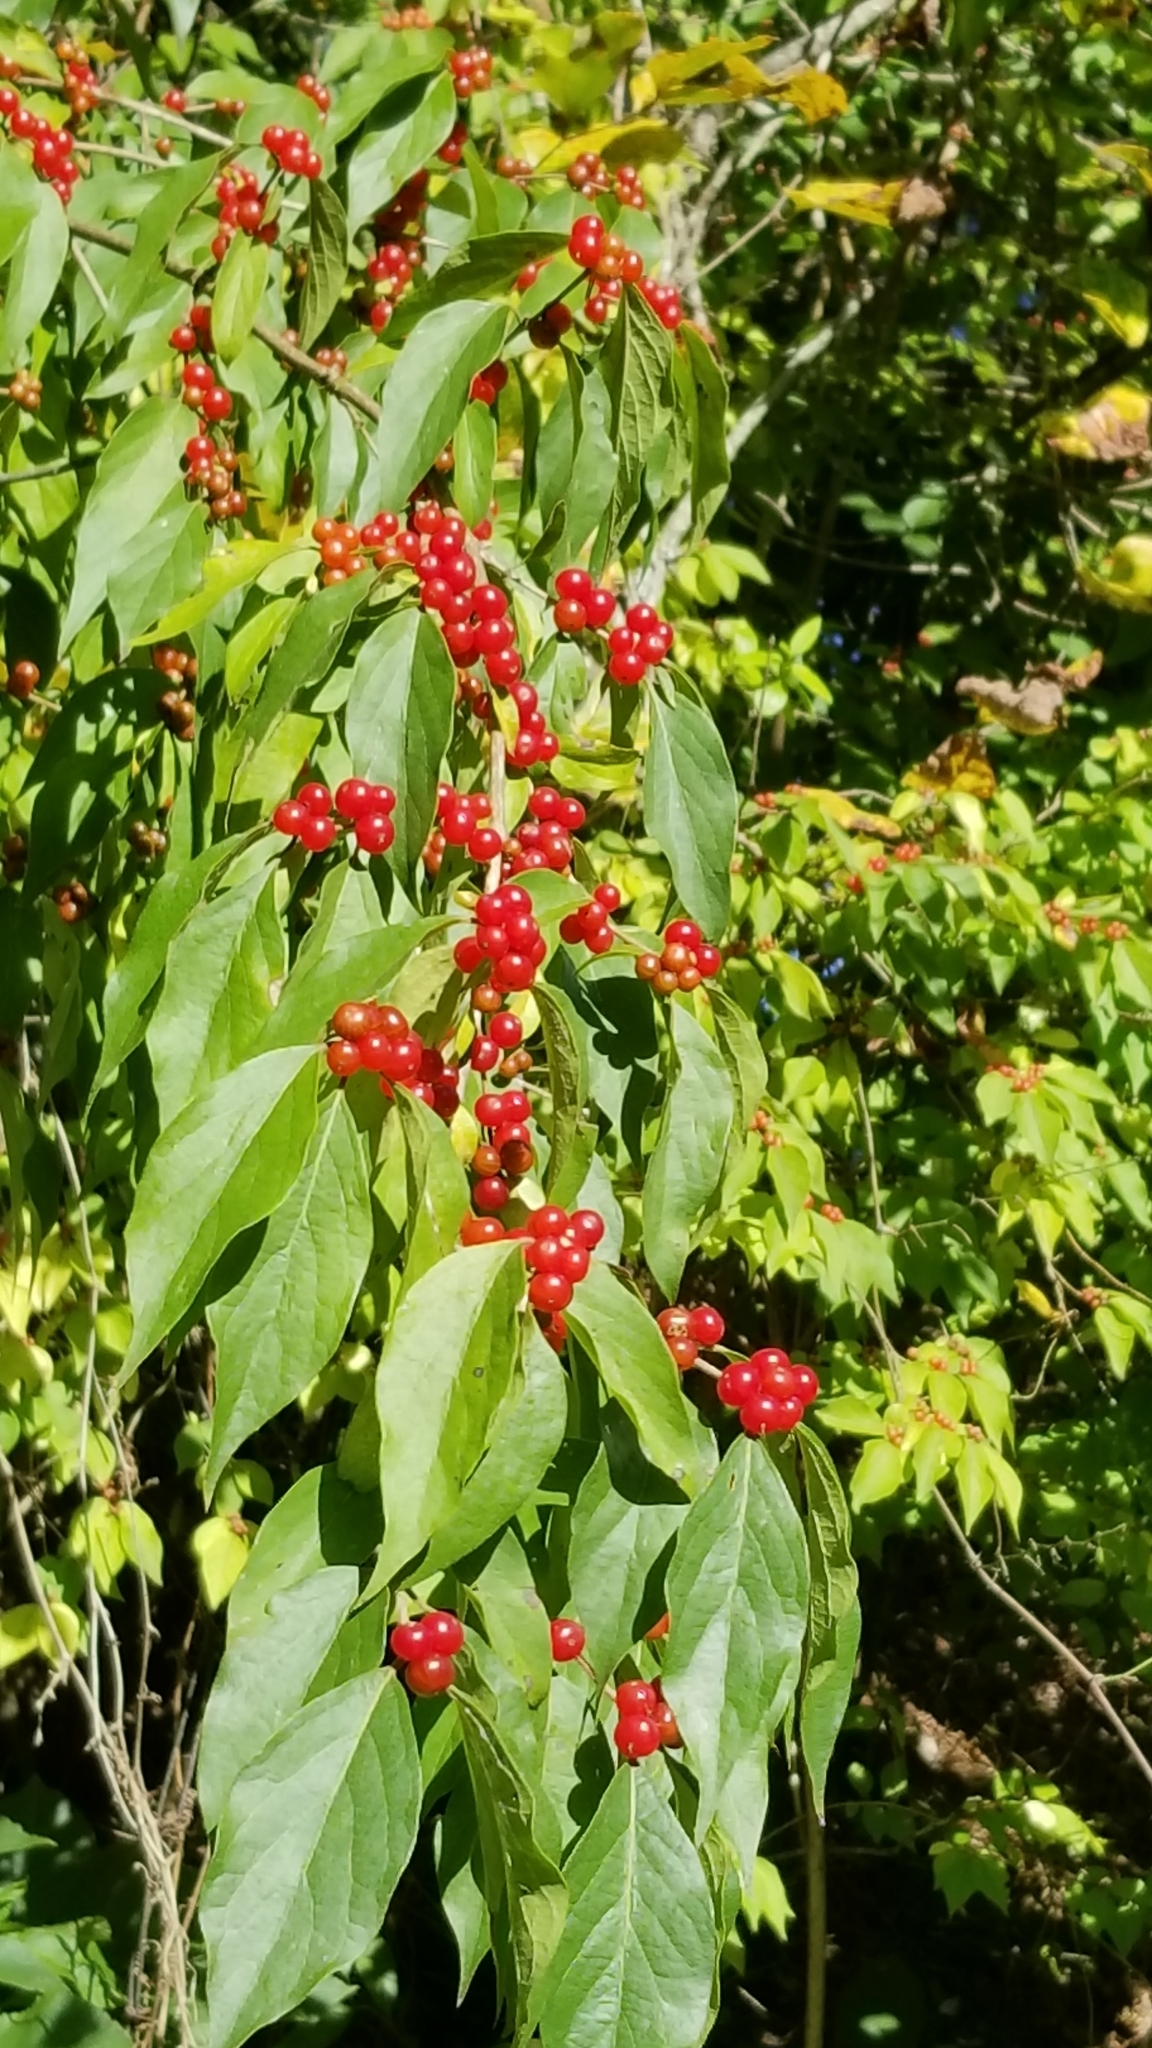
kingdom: Plantae
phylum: Tracheophyta
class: Magnoliopsida
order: Dipsacales
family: Caprifoliaceae
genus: Lonicera
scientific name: Lonicera maackii
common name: Amur honeysuckle
